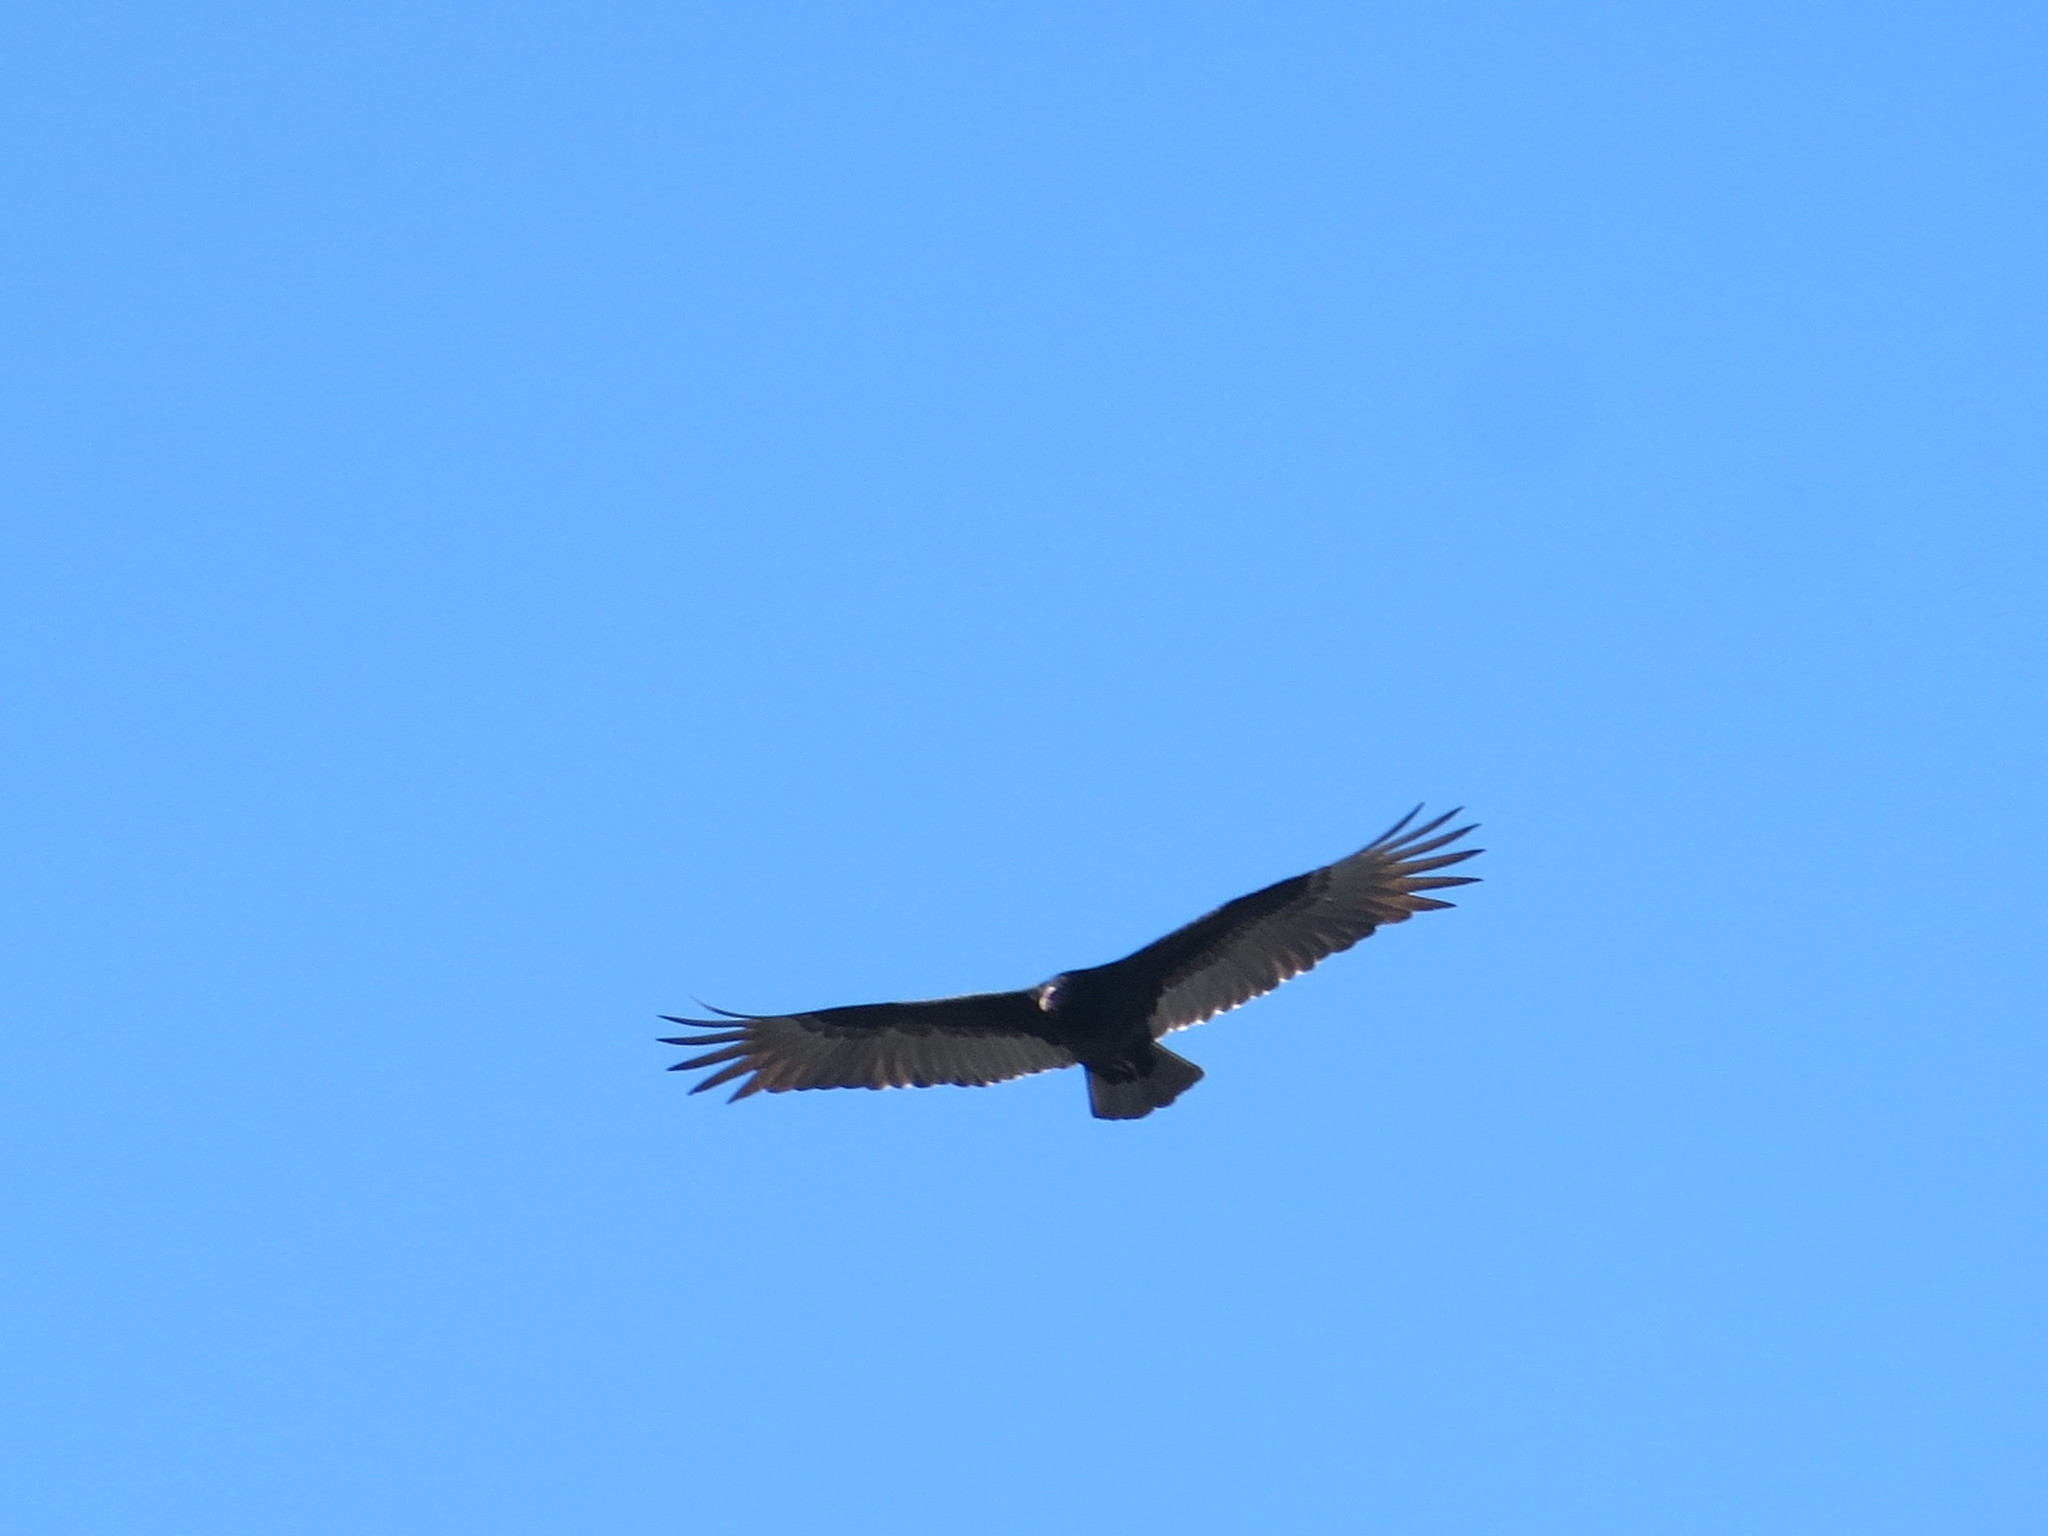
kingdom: Animalia
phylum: Chordata
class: Aves
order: Accipitriformes
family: Cathartidae
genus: Cathartes
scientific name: Cathartes aura
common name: Turkey vulture
